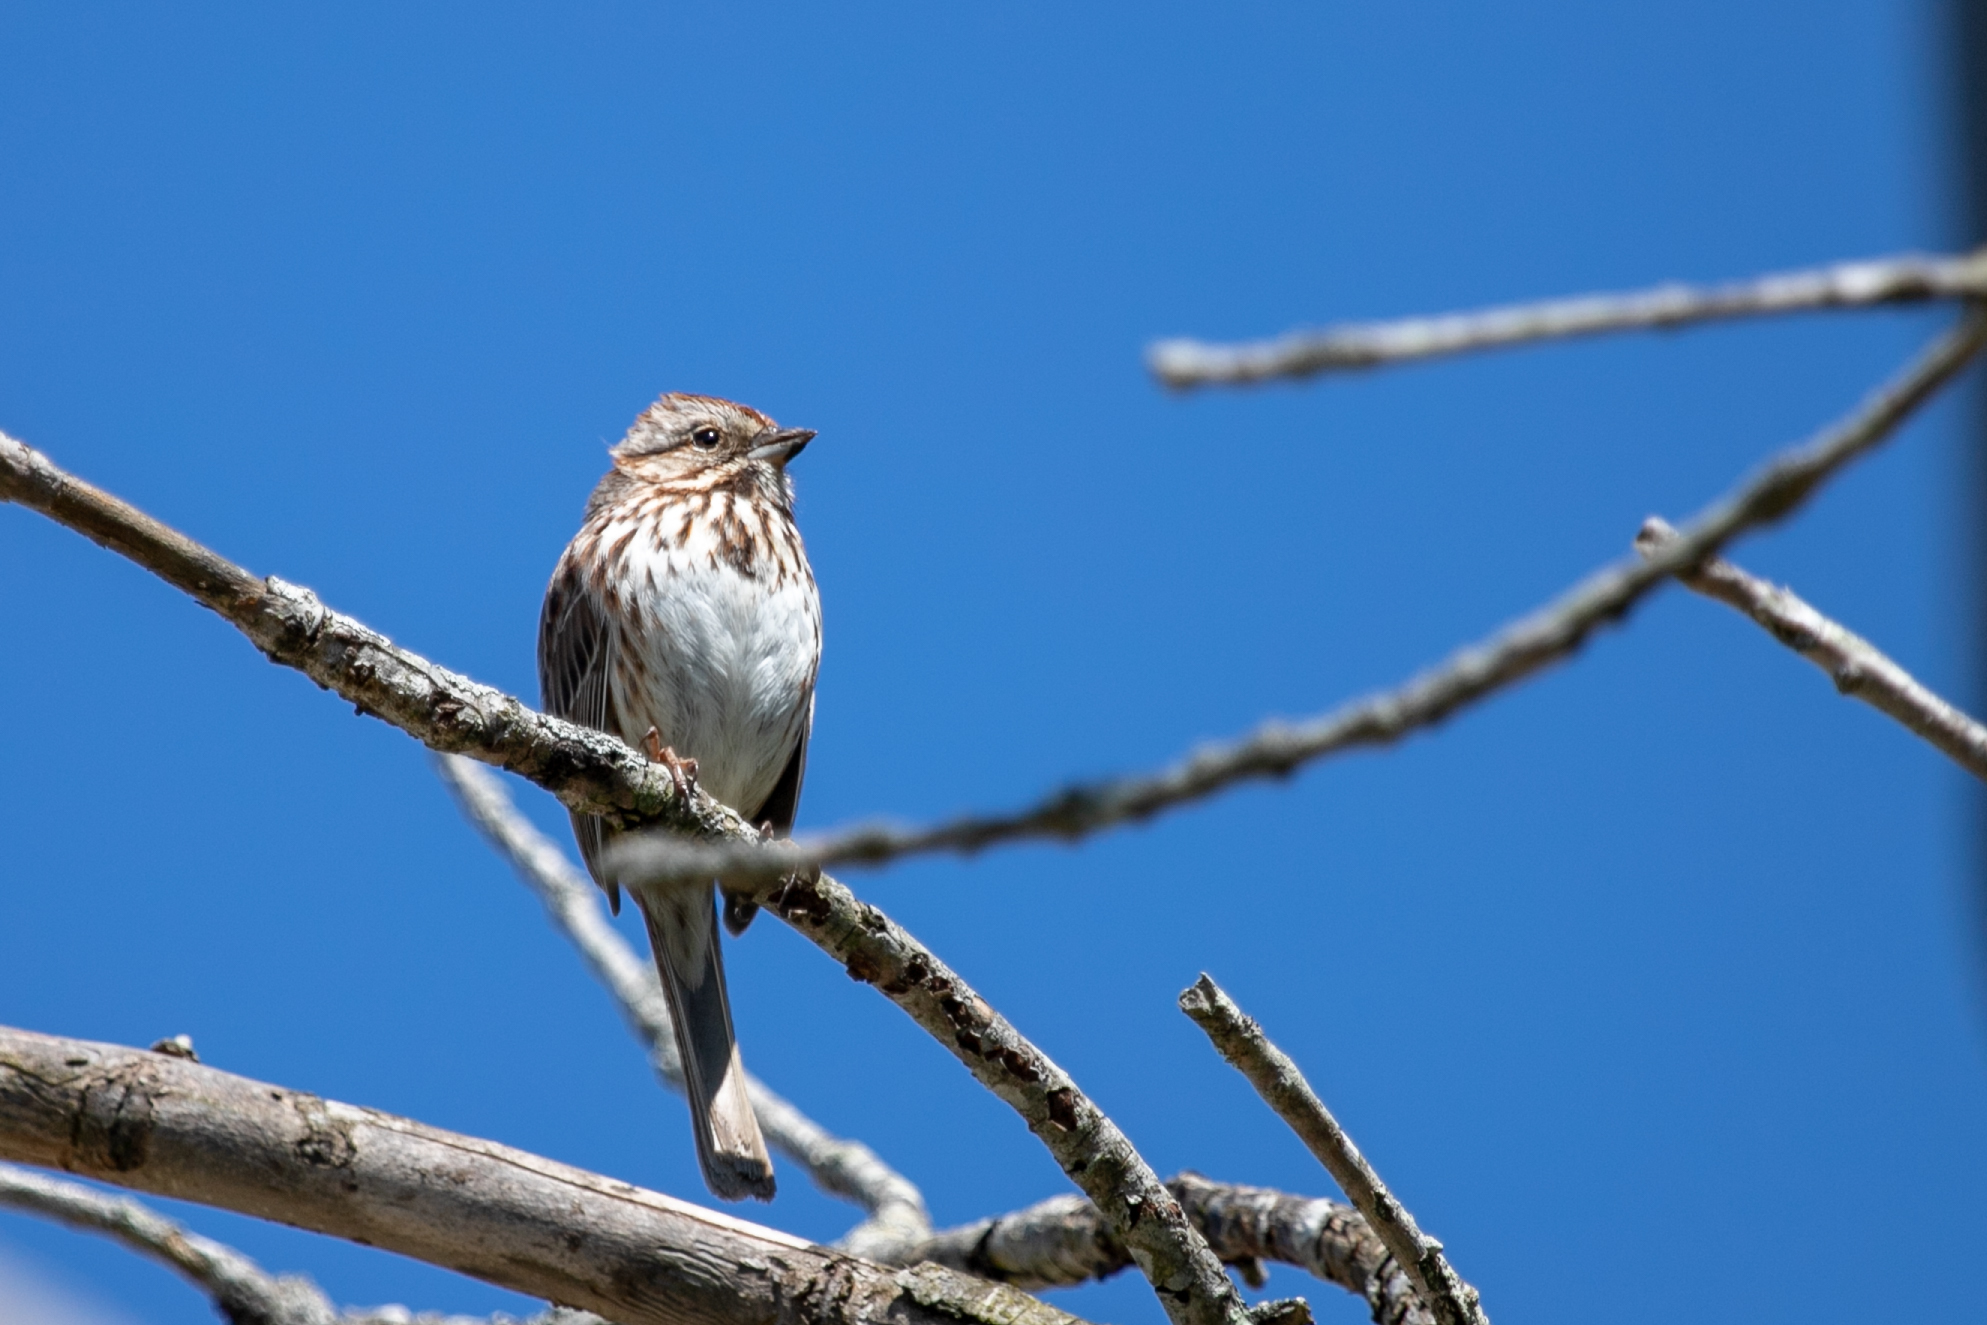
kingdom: Animalia
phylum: Chordata
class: Aves
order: Passeriformes
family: Passerellidae
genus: Melospiza
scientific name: Melospiza melodia
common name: Song sparrow
